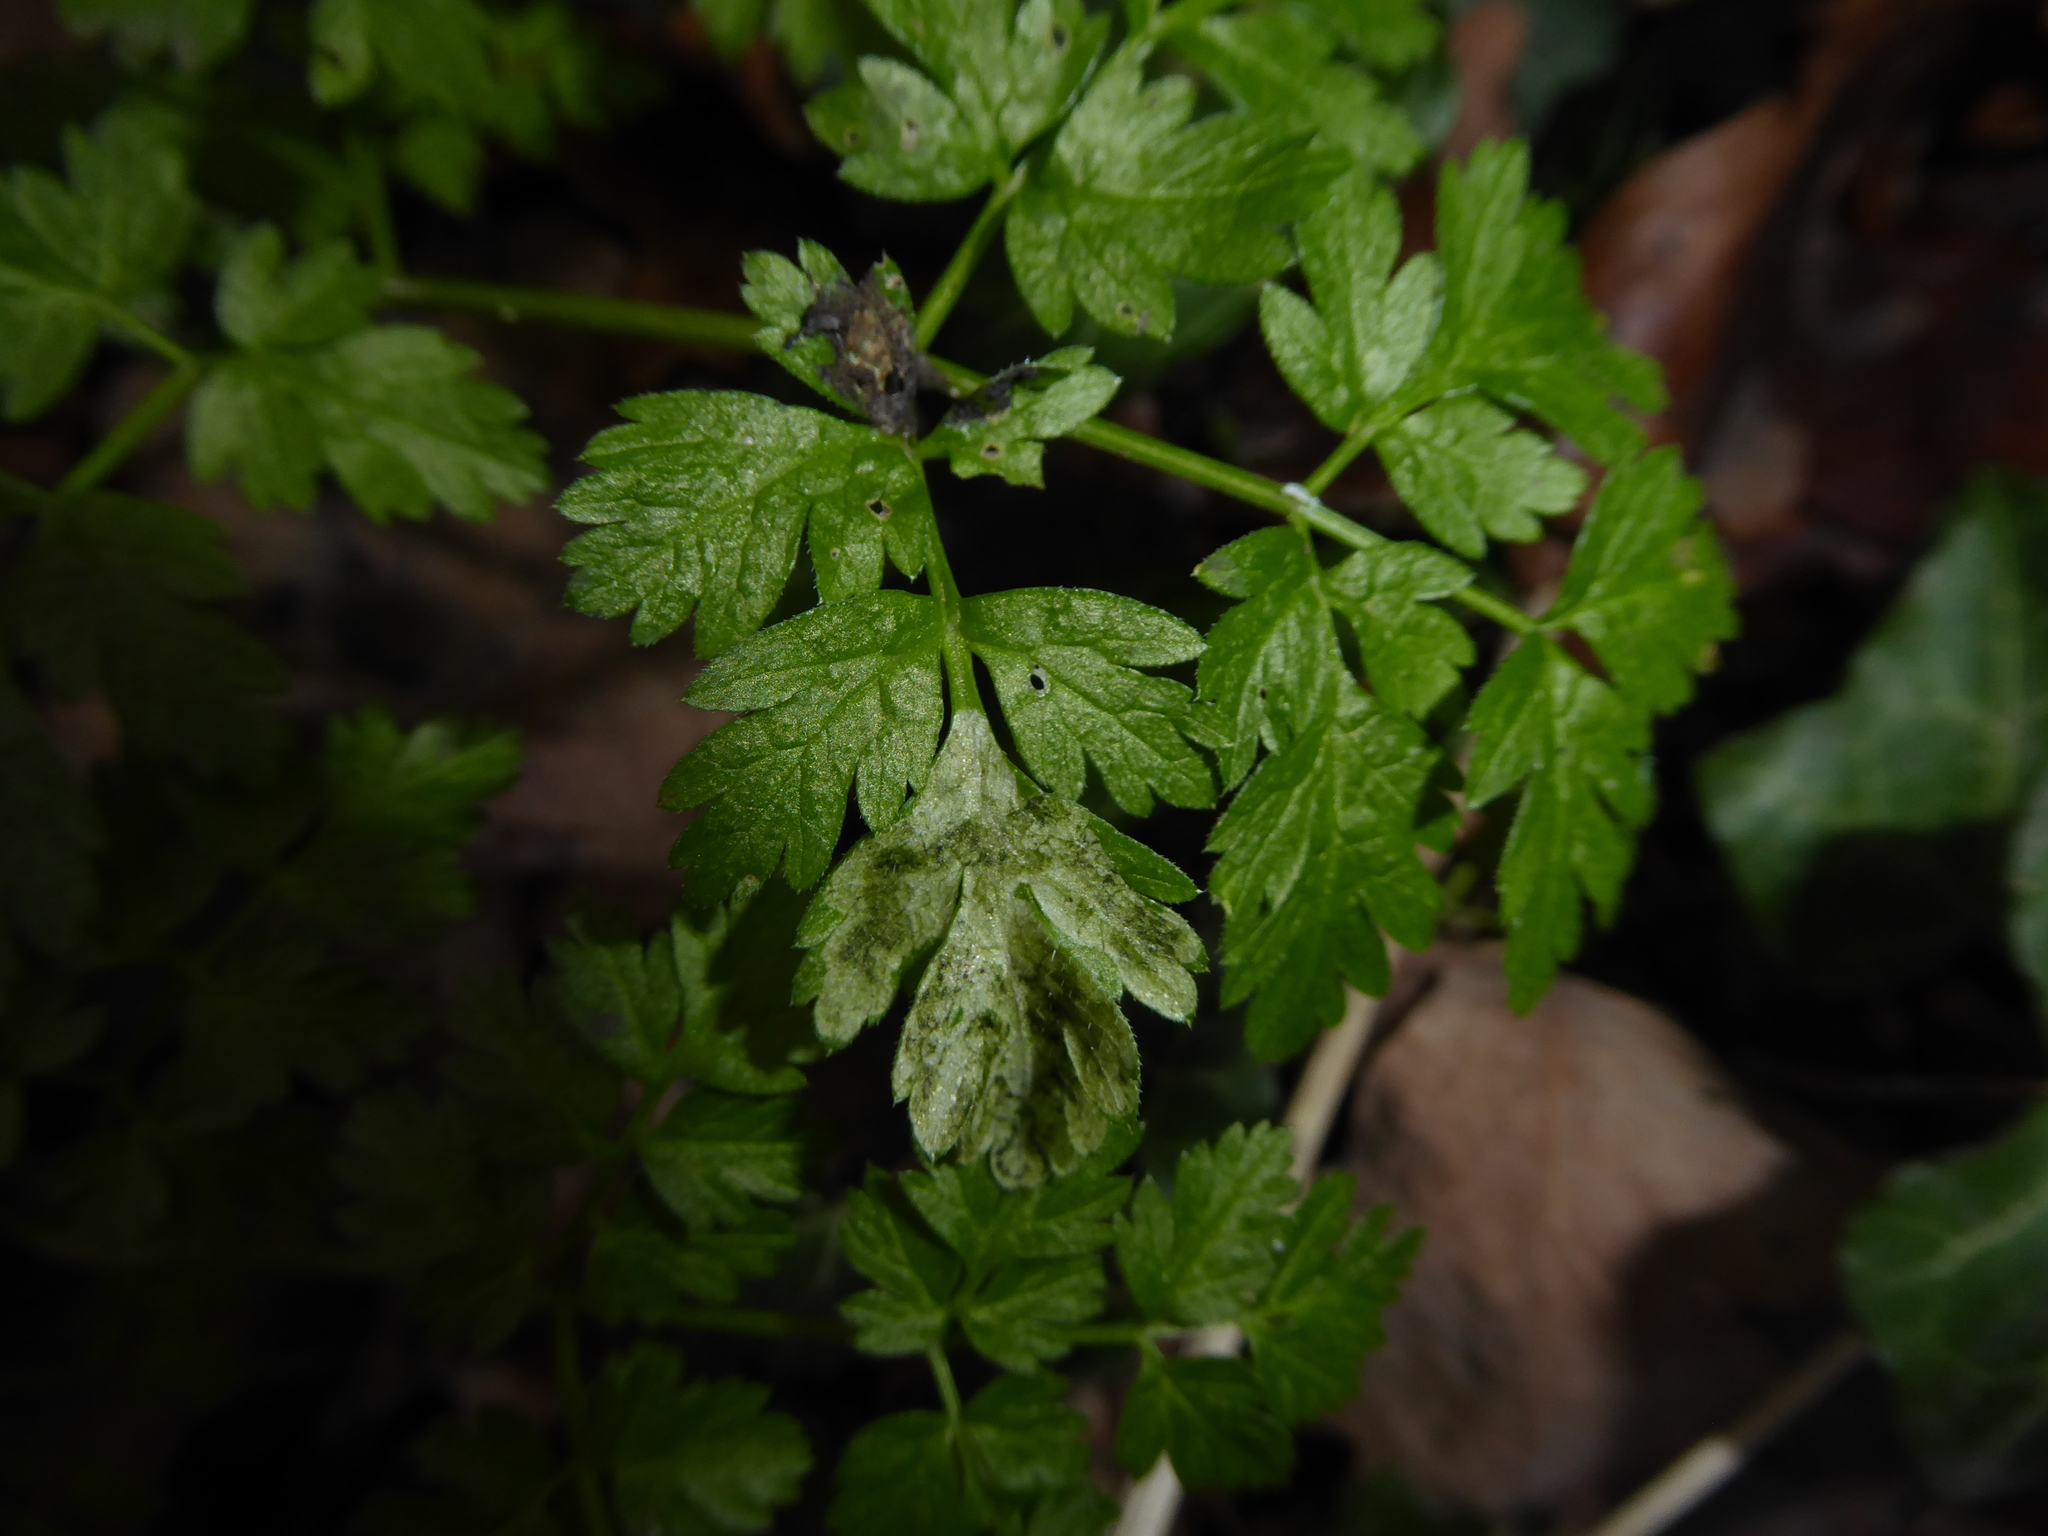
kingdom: Animalia
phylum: Arthropoda
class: Insecta
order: Diptera
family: Agromyzidae
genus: Phytomyza
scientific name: Phytomyza chaerophylli
